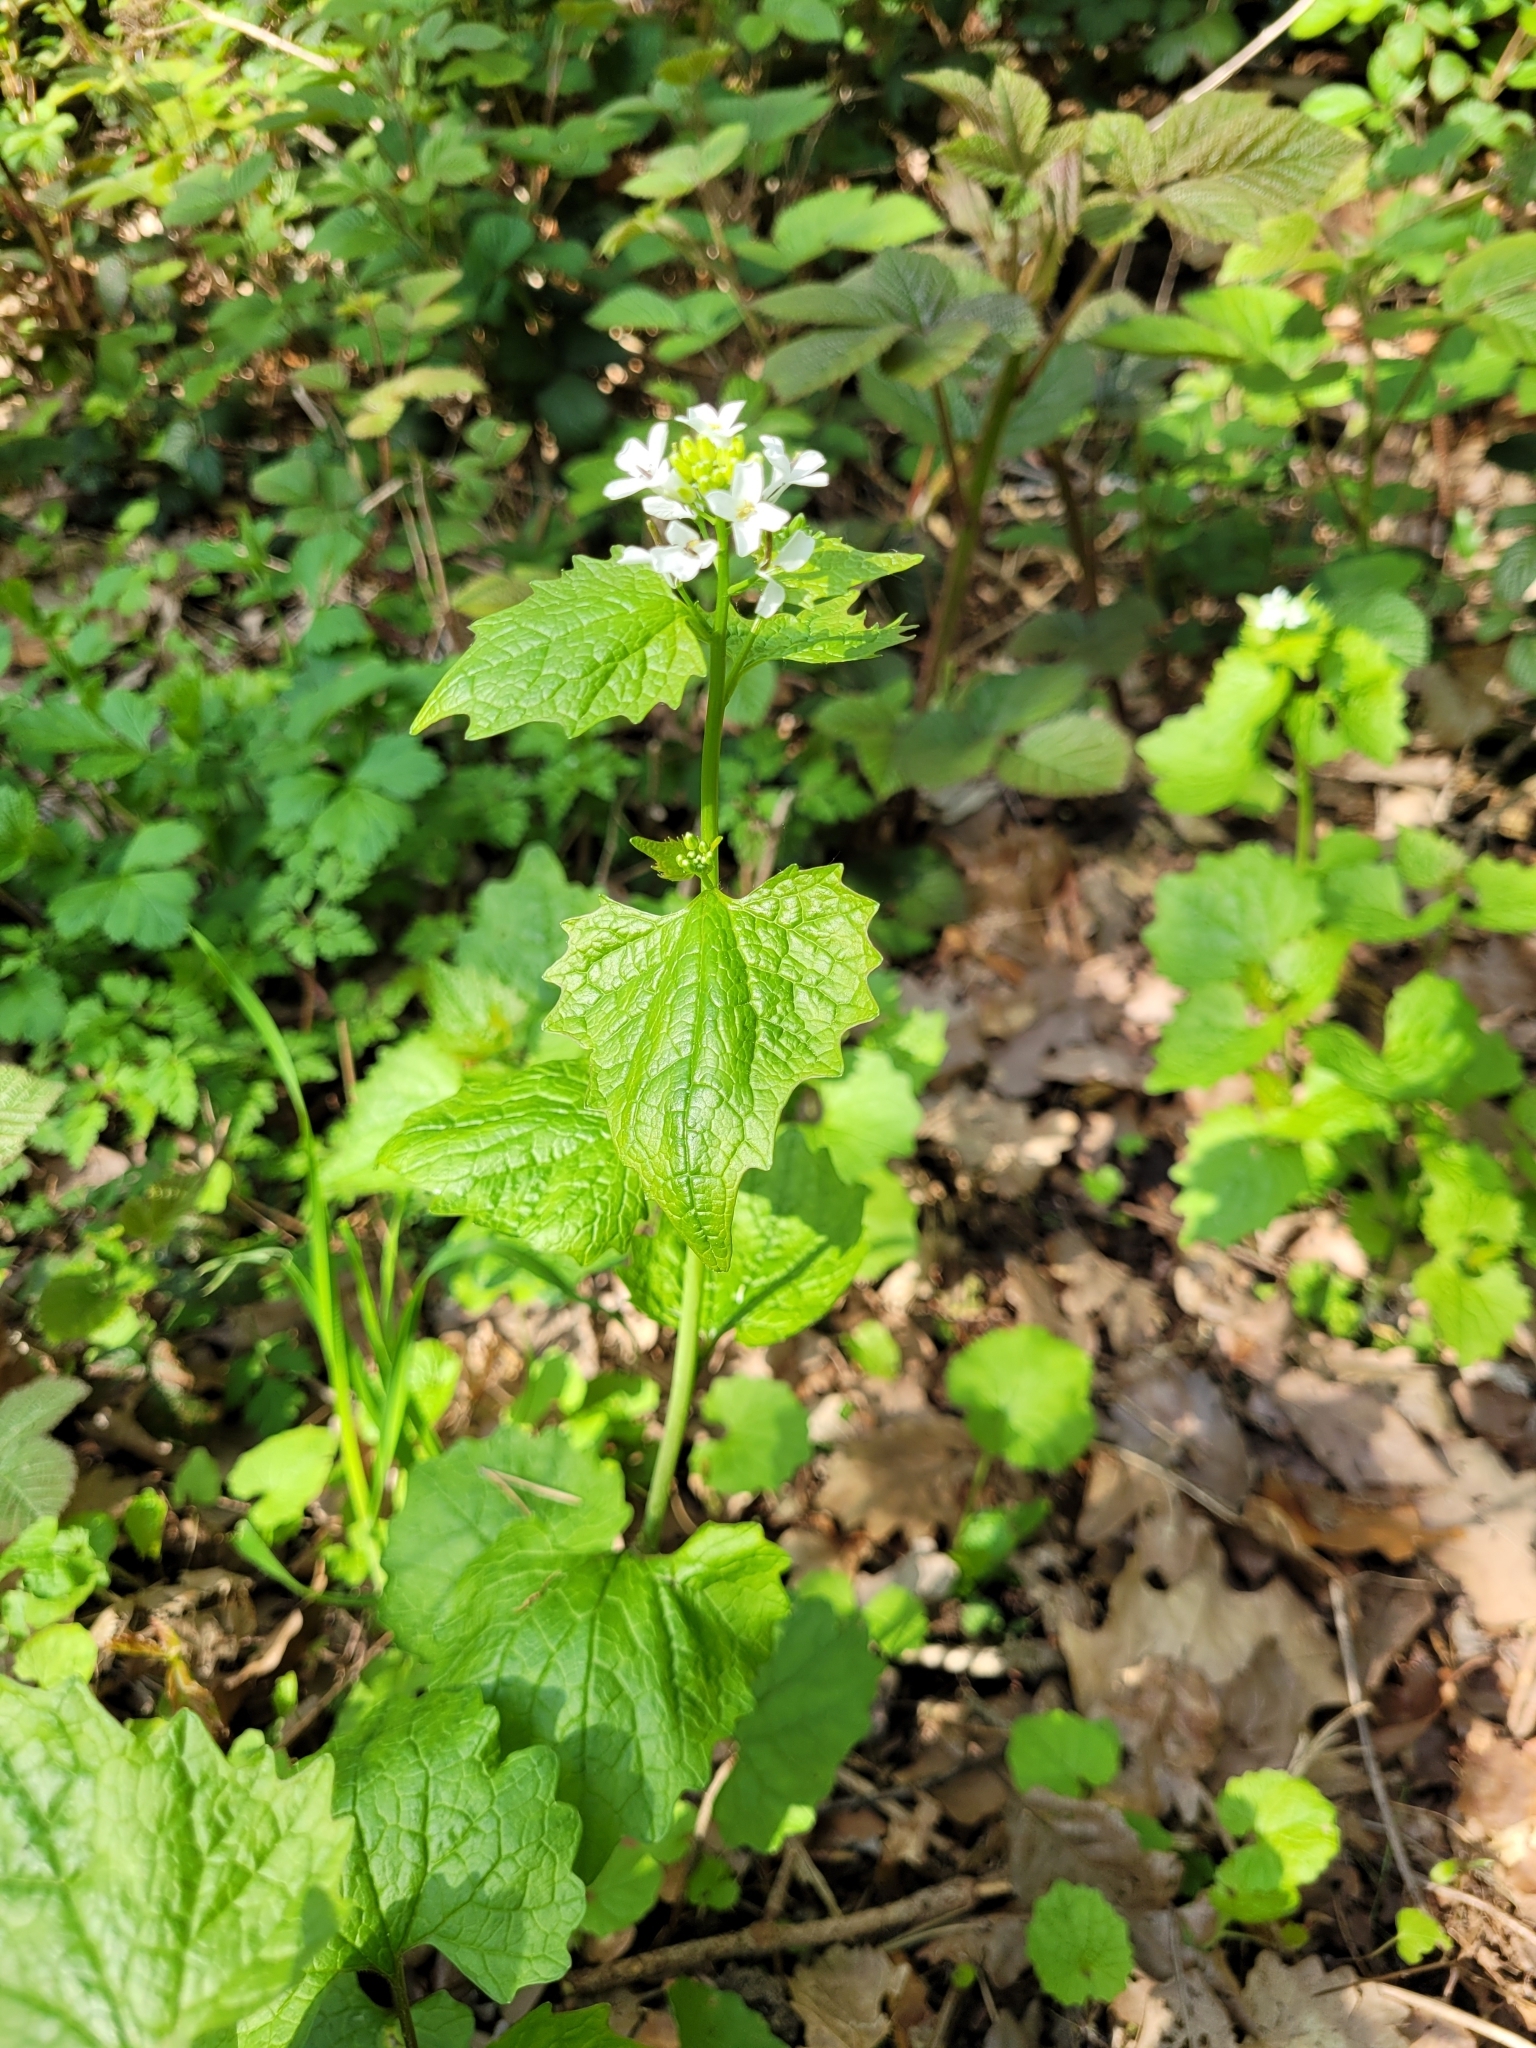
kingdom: Plantae
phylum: Tracheophyta
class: Magnoliopsida
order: Brassicales
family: Brassicaceae
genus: Alliaria
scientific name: Alliaria petiolata
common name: Garlic mustard
